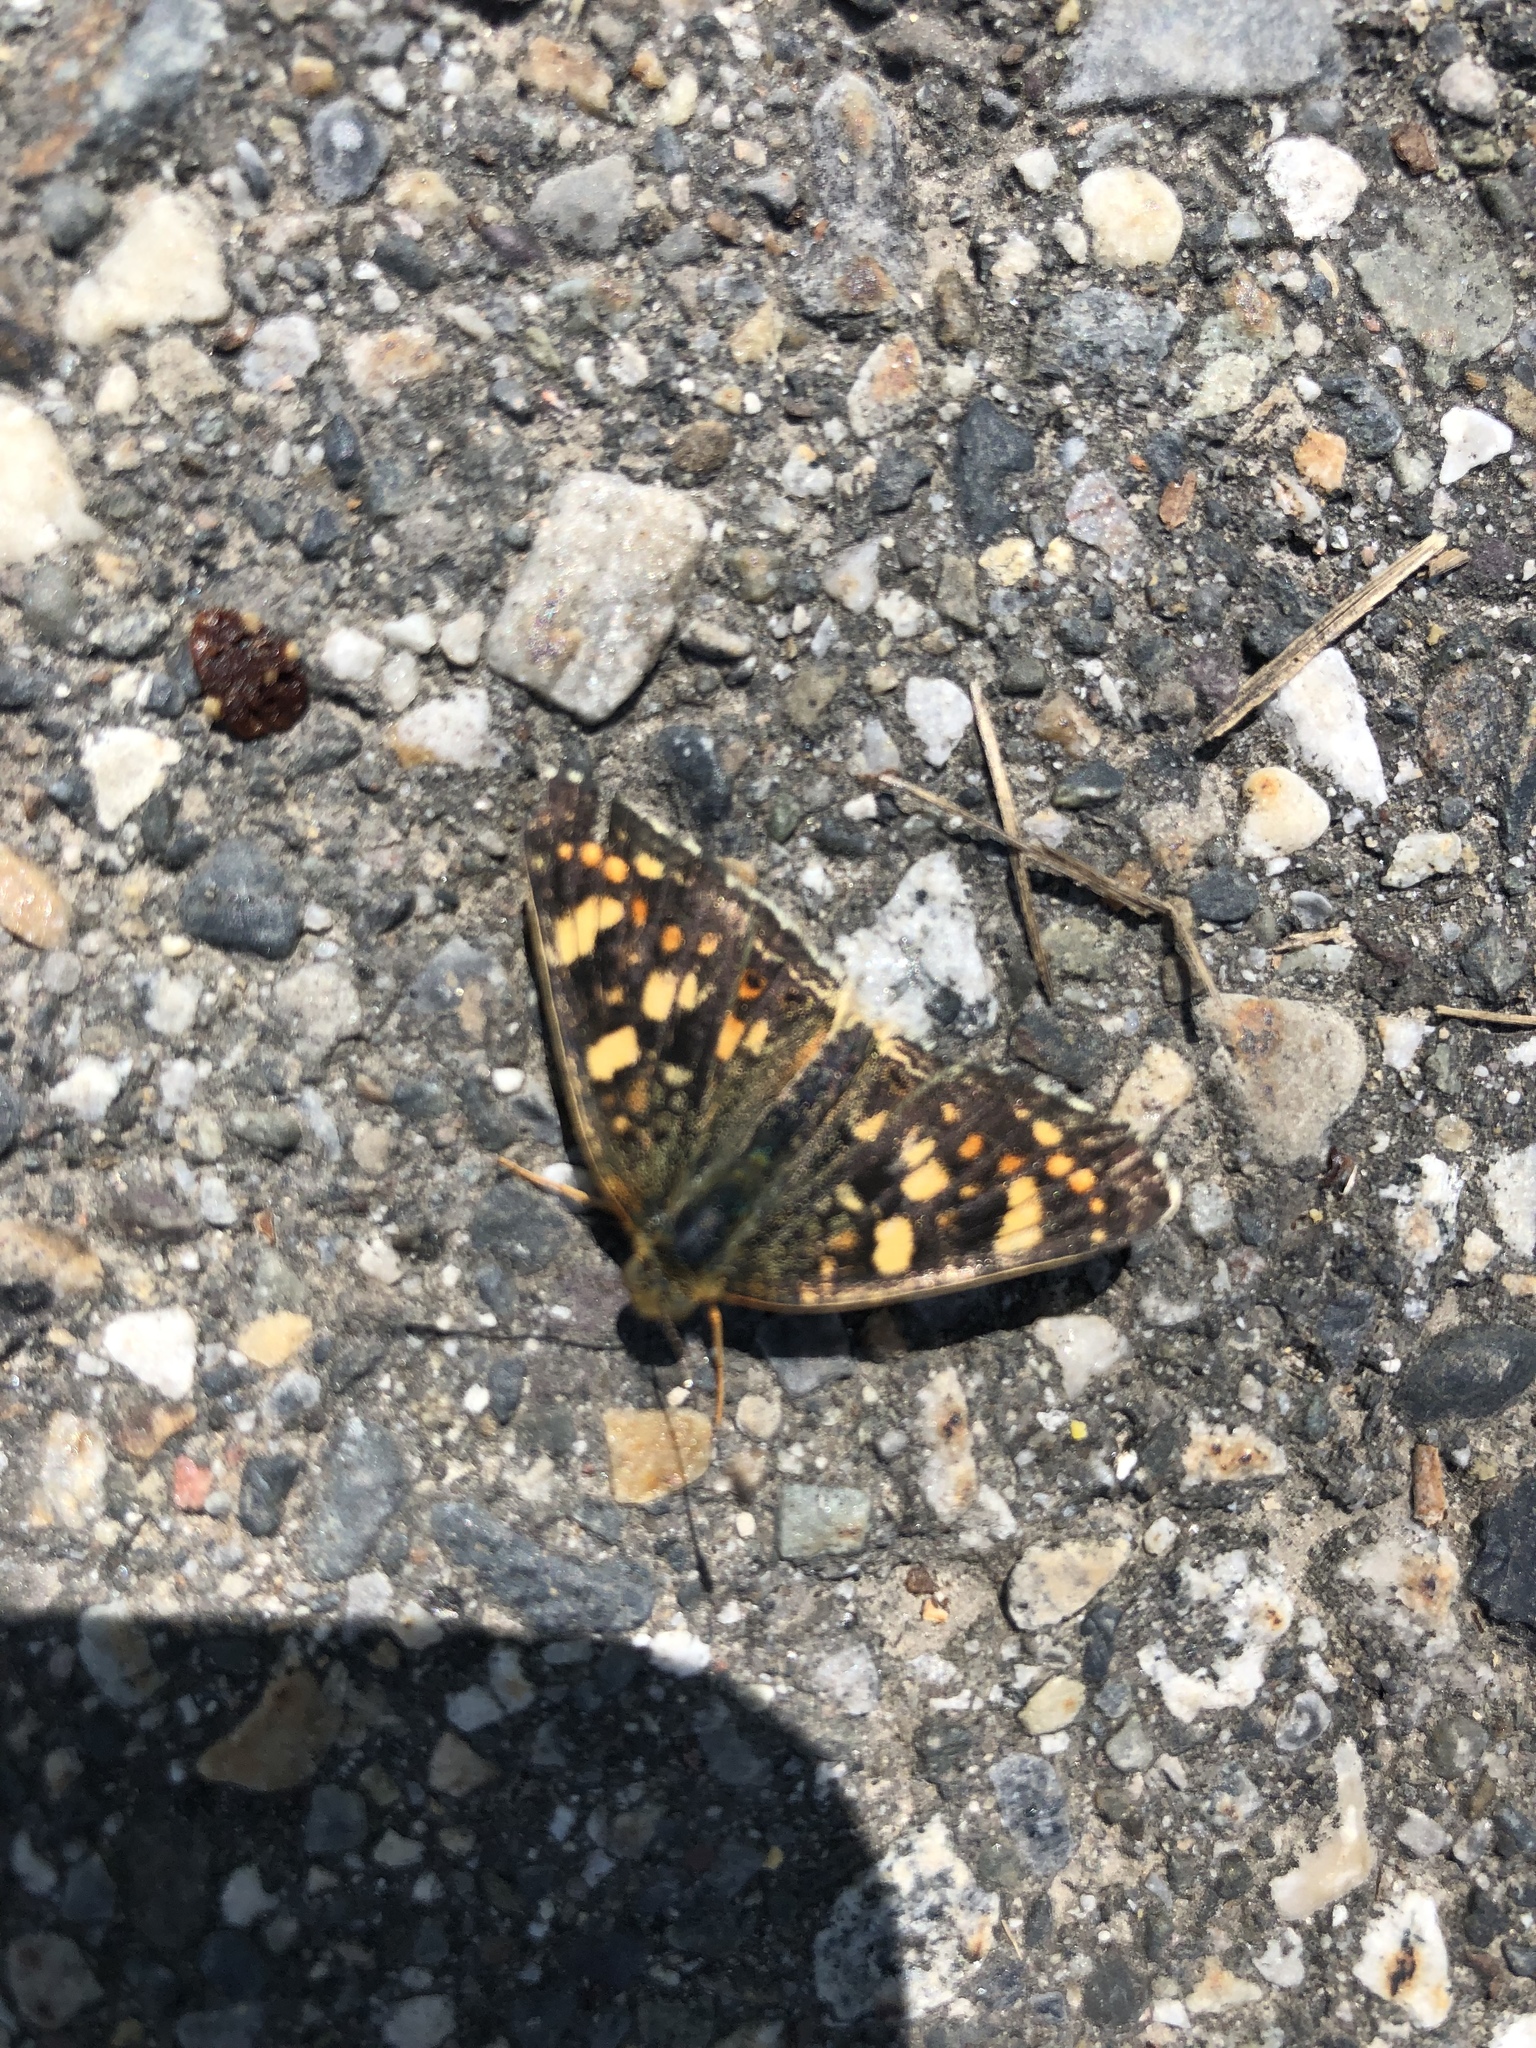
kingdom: Animalia
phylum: Arthropoda
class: Insecta
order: Lepidoptera
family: Nymphalidae
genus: Phyciodes
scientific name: Phyciodes tharos
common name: Pearl crescent
